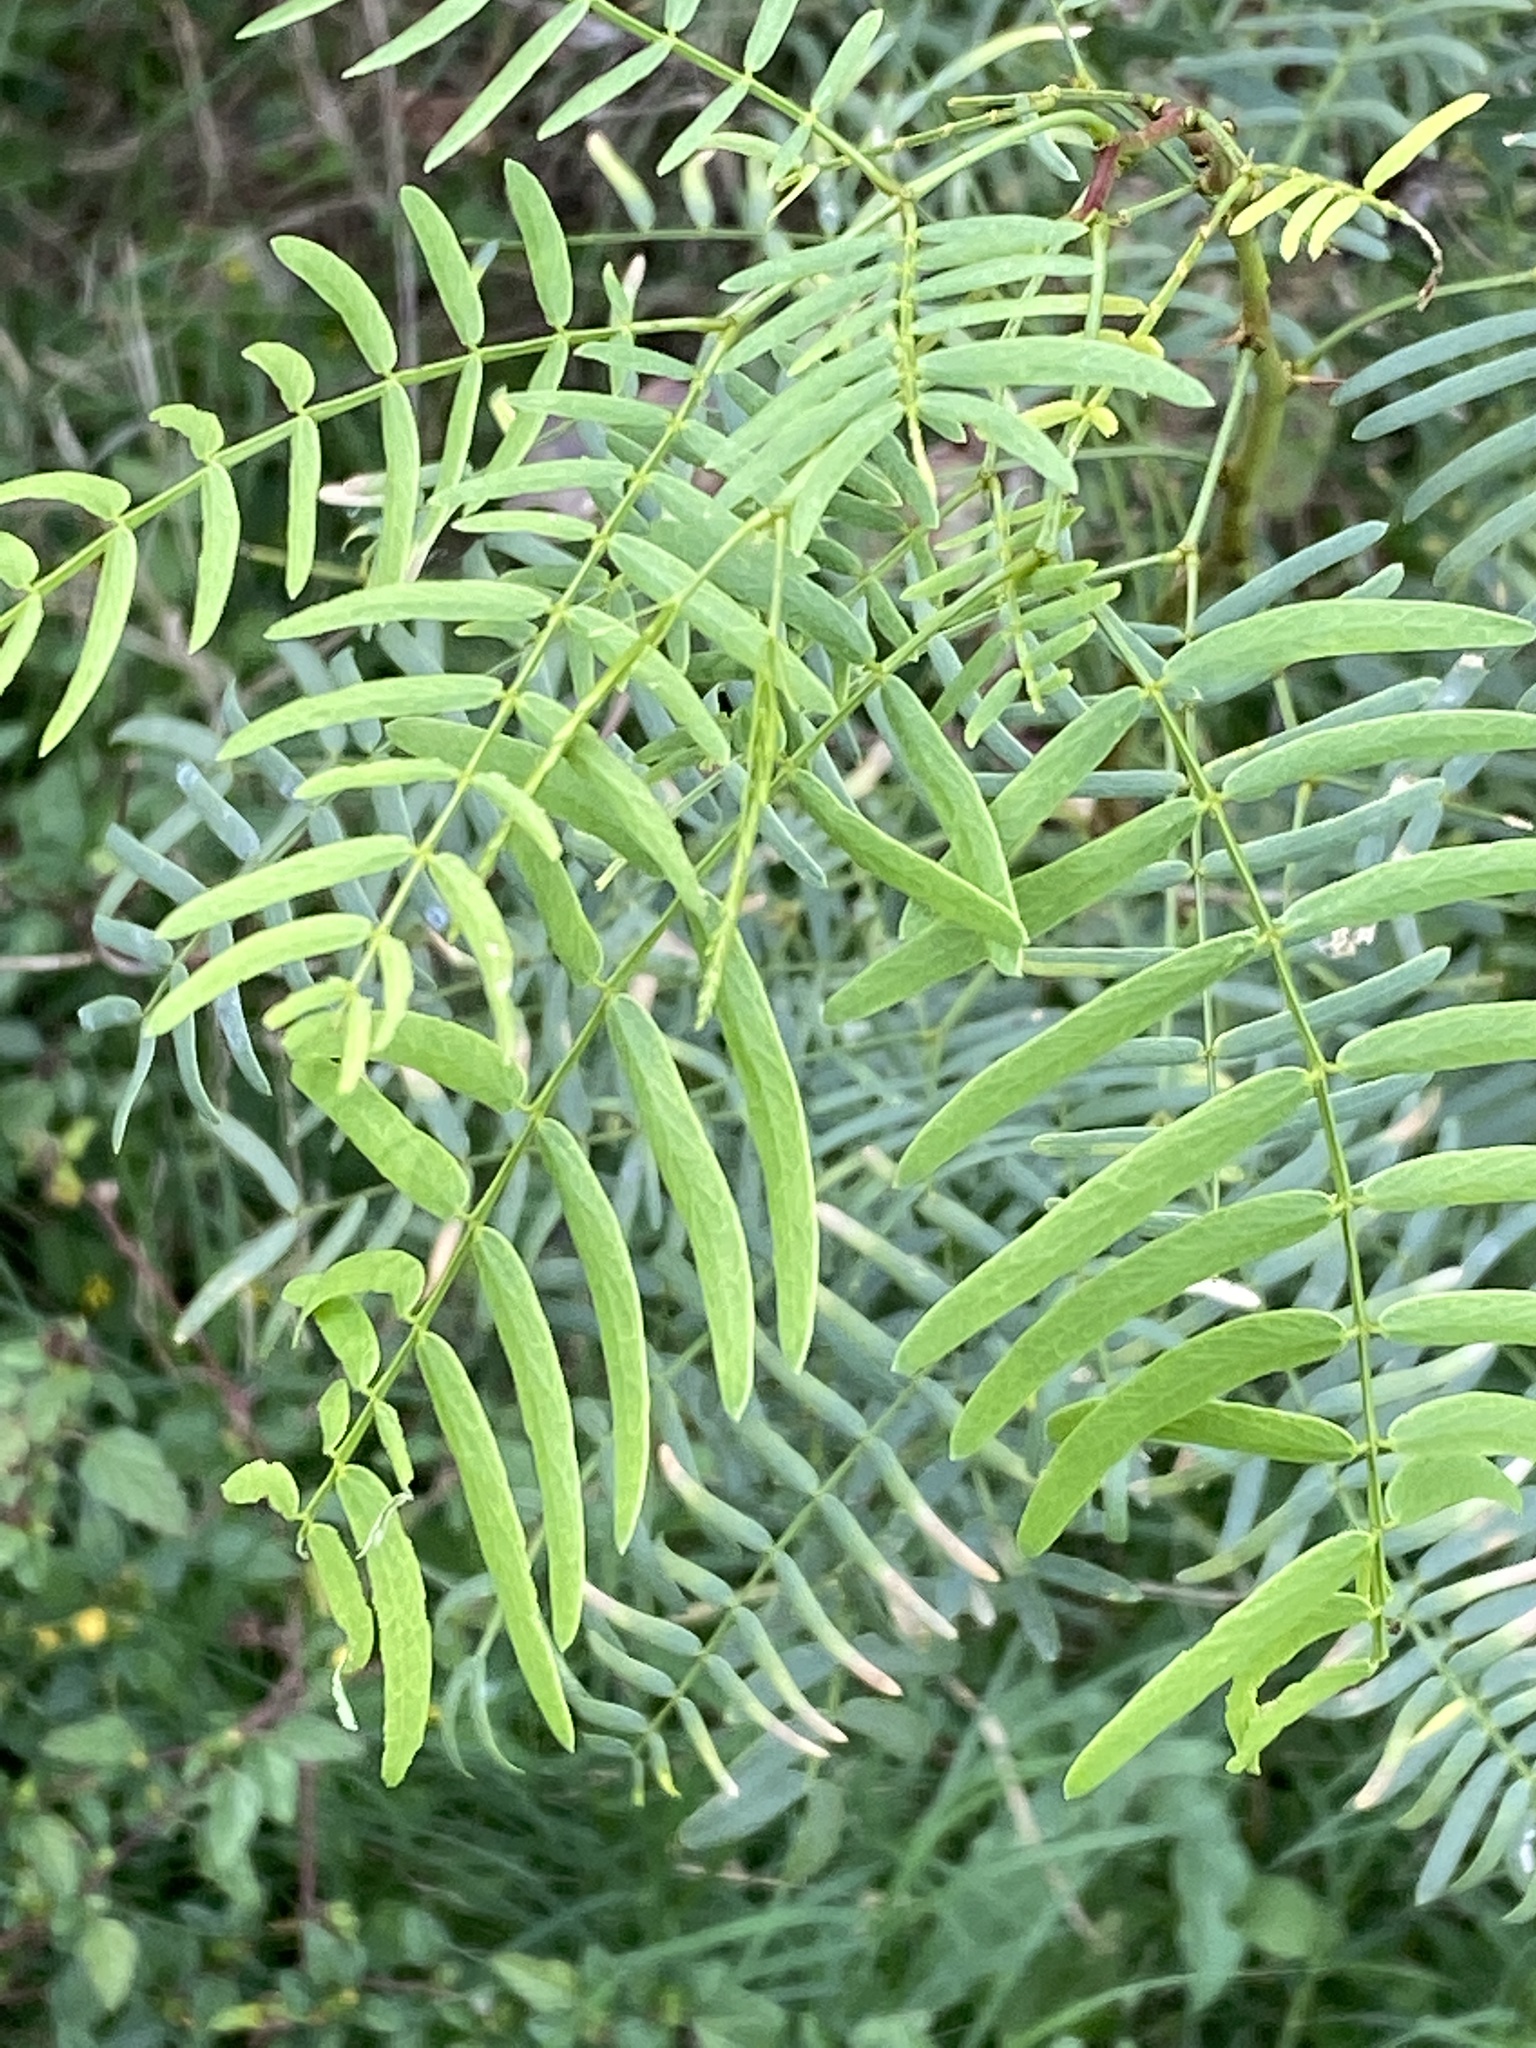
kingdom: Plantae
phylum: Tracheophyta
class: Magnoliopsida
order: Fabales
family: Fabaceae
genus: Prosopis
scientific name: Prosopis glandulosa
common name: Honey mesquite
